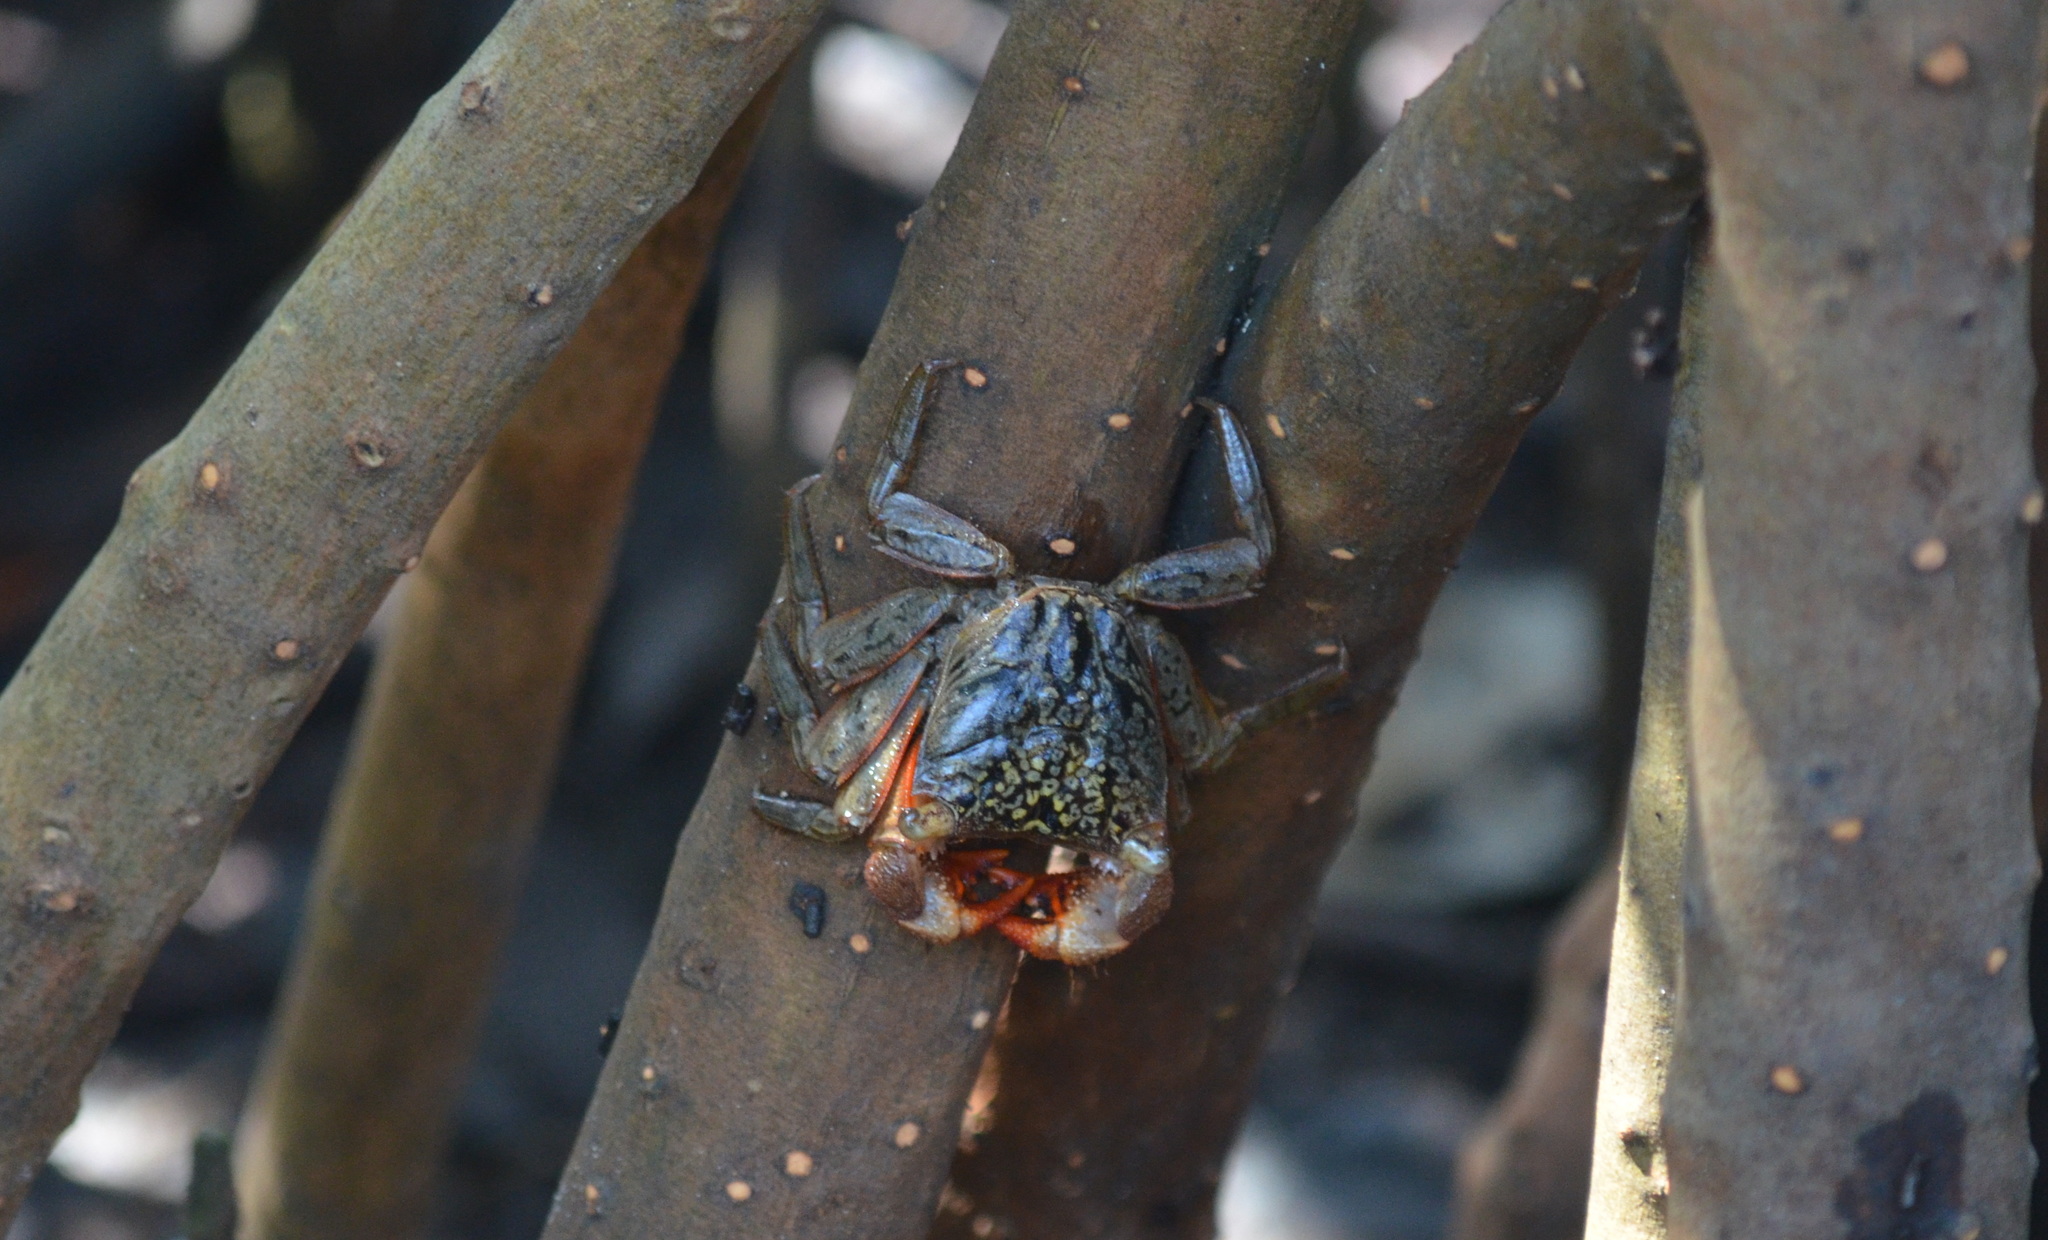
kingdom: Animalia
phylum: Arthropoda
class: Malacostraca
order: Decapoda
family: Sesarmidae
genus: Aratus
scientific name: Aratus pisonii
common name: Mangrove crab
